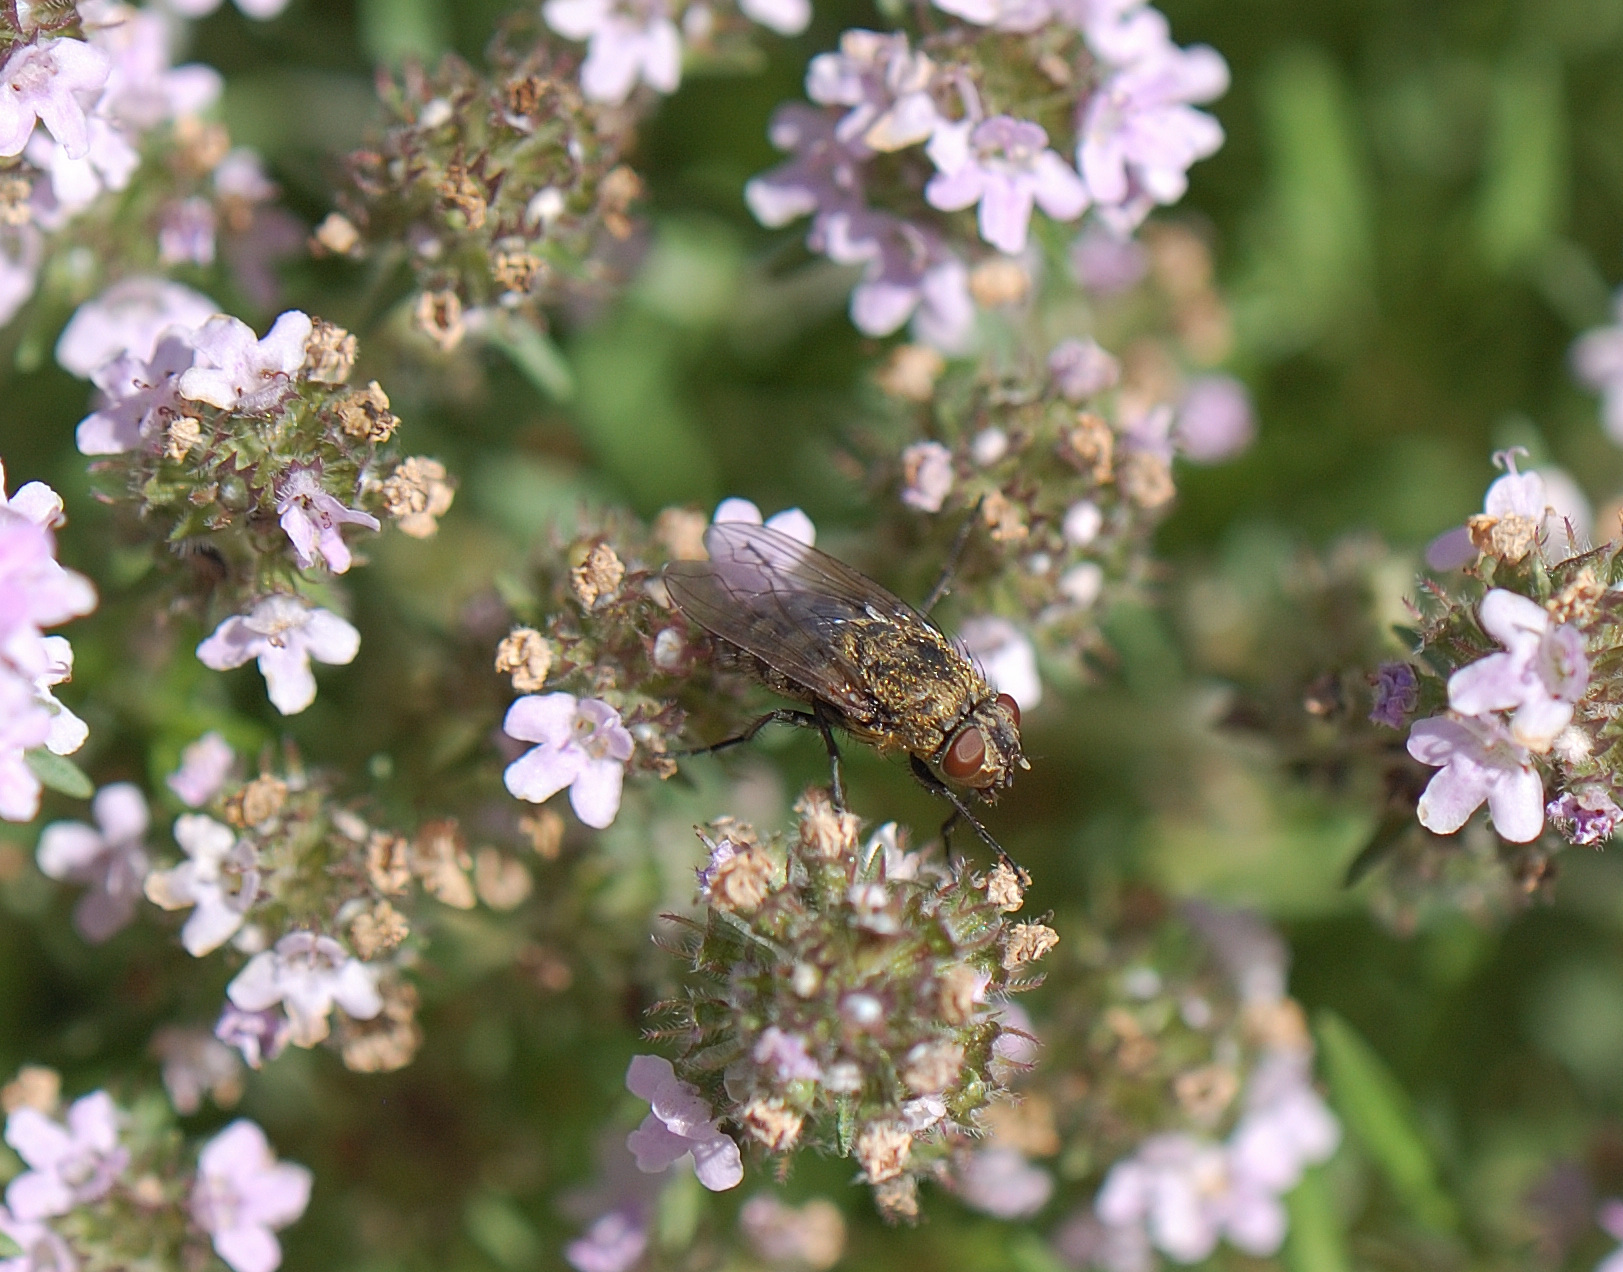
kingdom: Animalia
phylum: Arthropoda
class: Insecta
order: Diptera
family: Polleniidae
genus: Pollenia
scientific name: Pollenia
